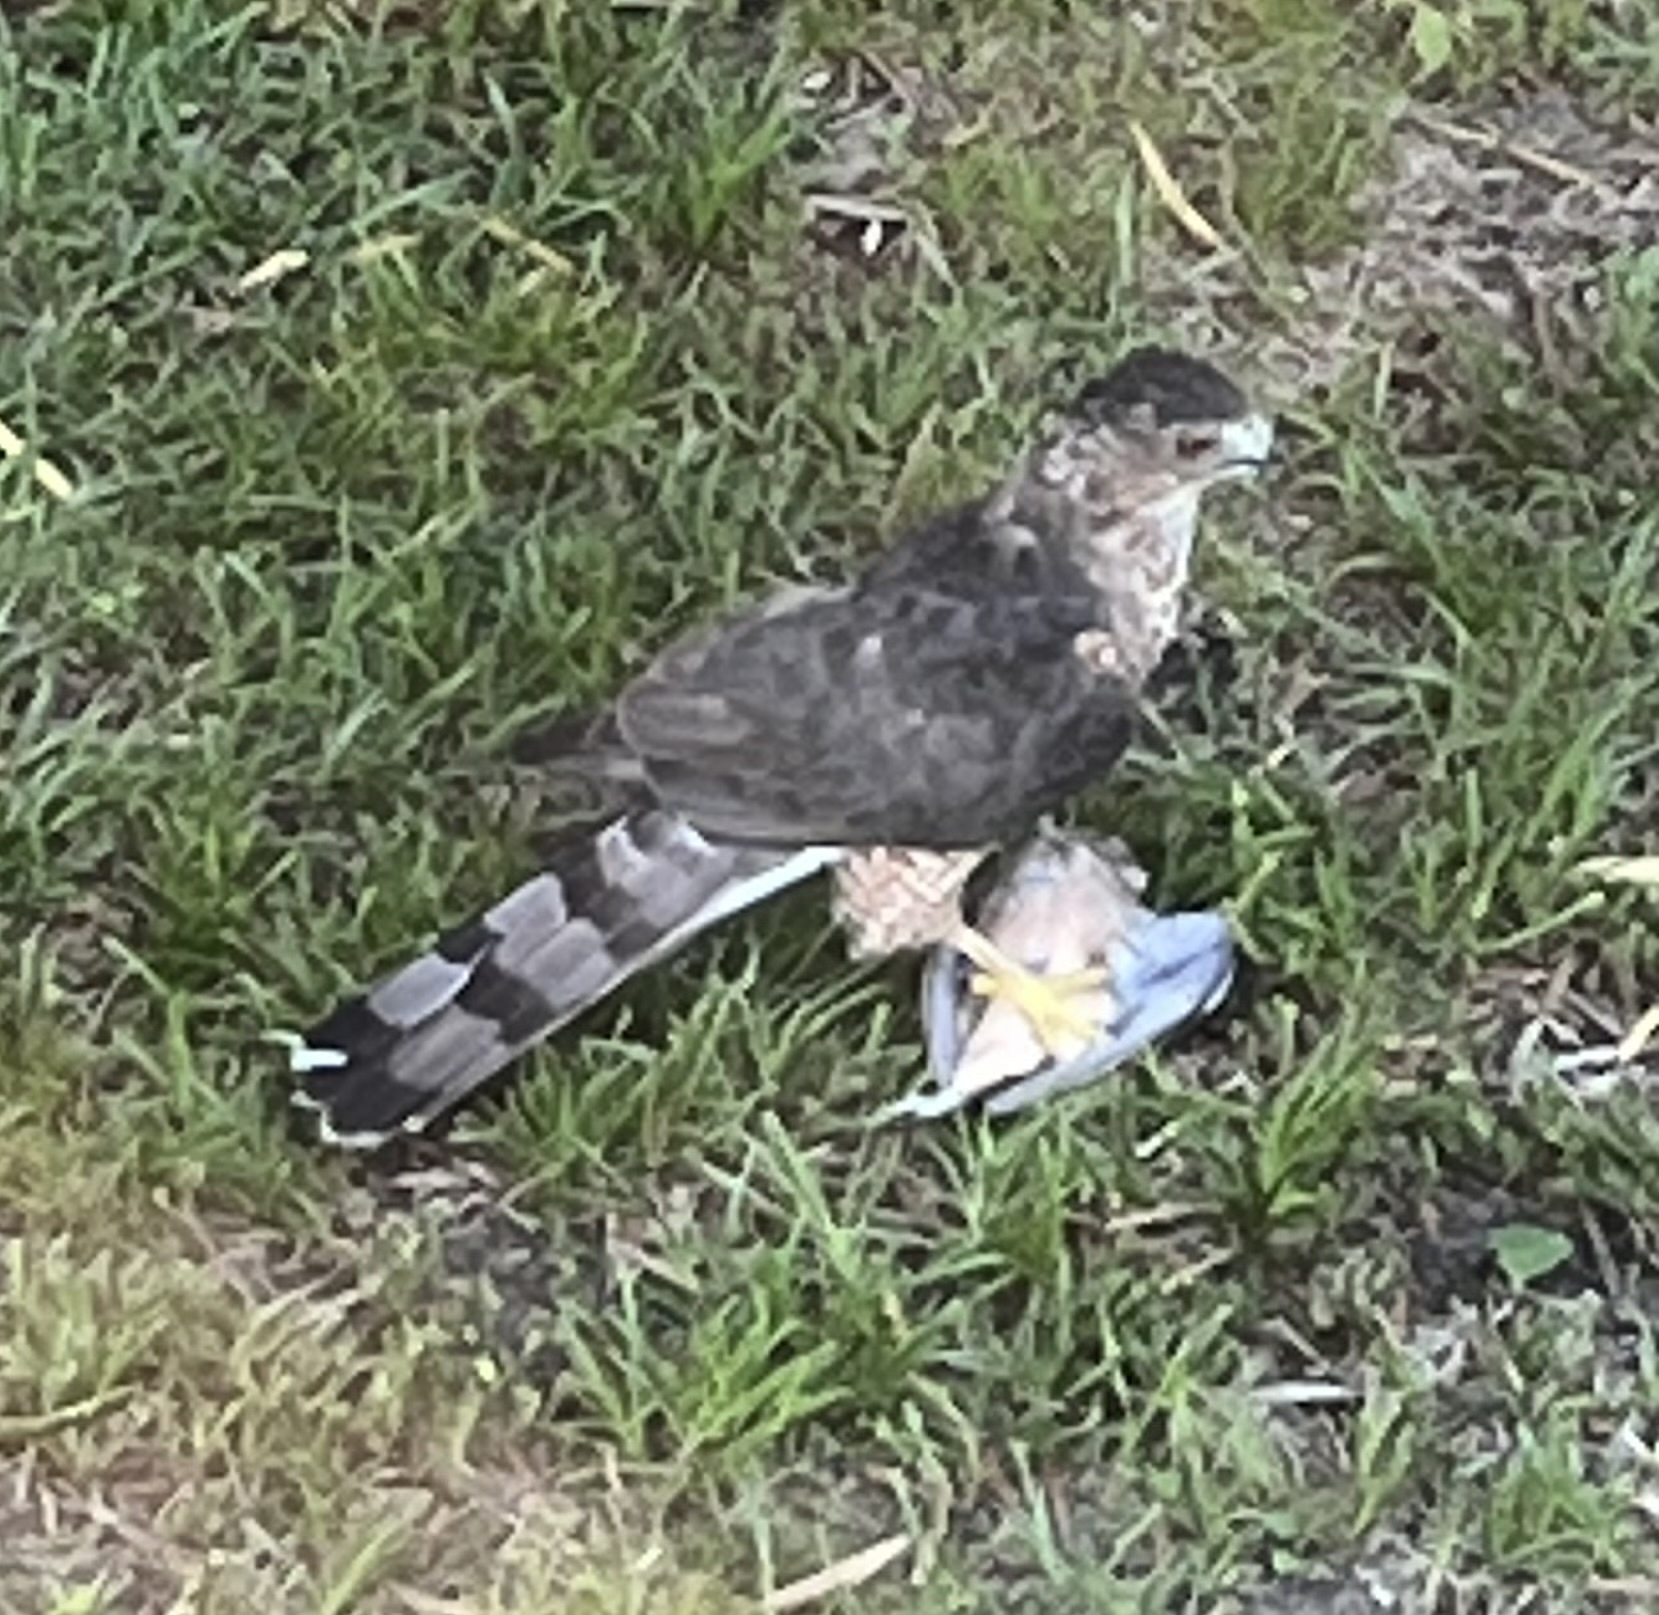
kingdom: Animalia
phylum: Chordata
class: Aves
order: Accipitriformes
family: Accipitridae
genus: Accipiter
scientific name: Accipiter cooperii
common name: Cooper's hawk
